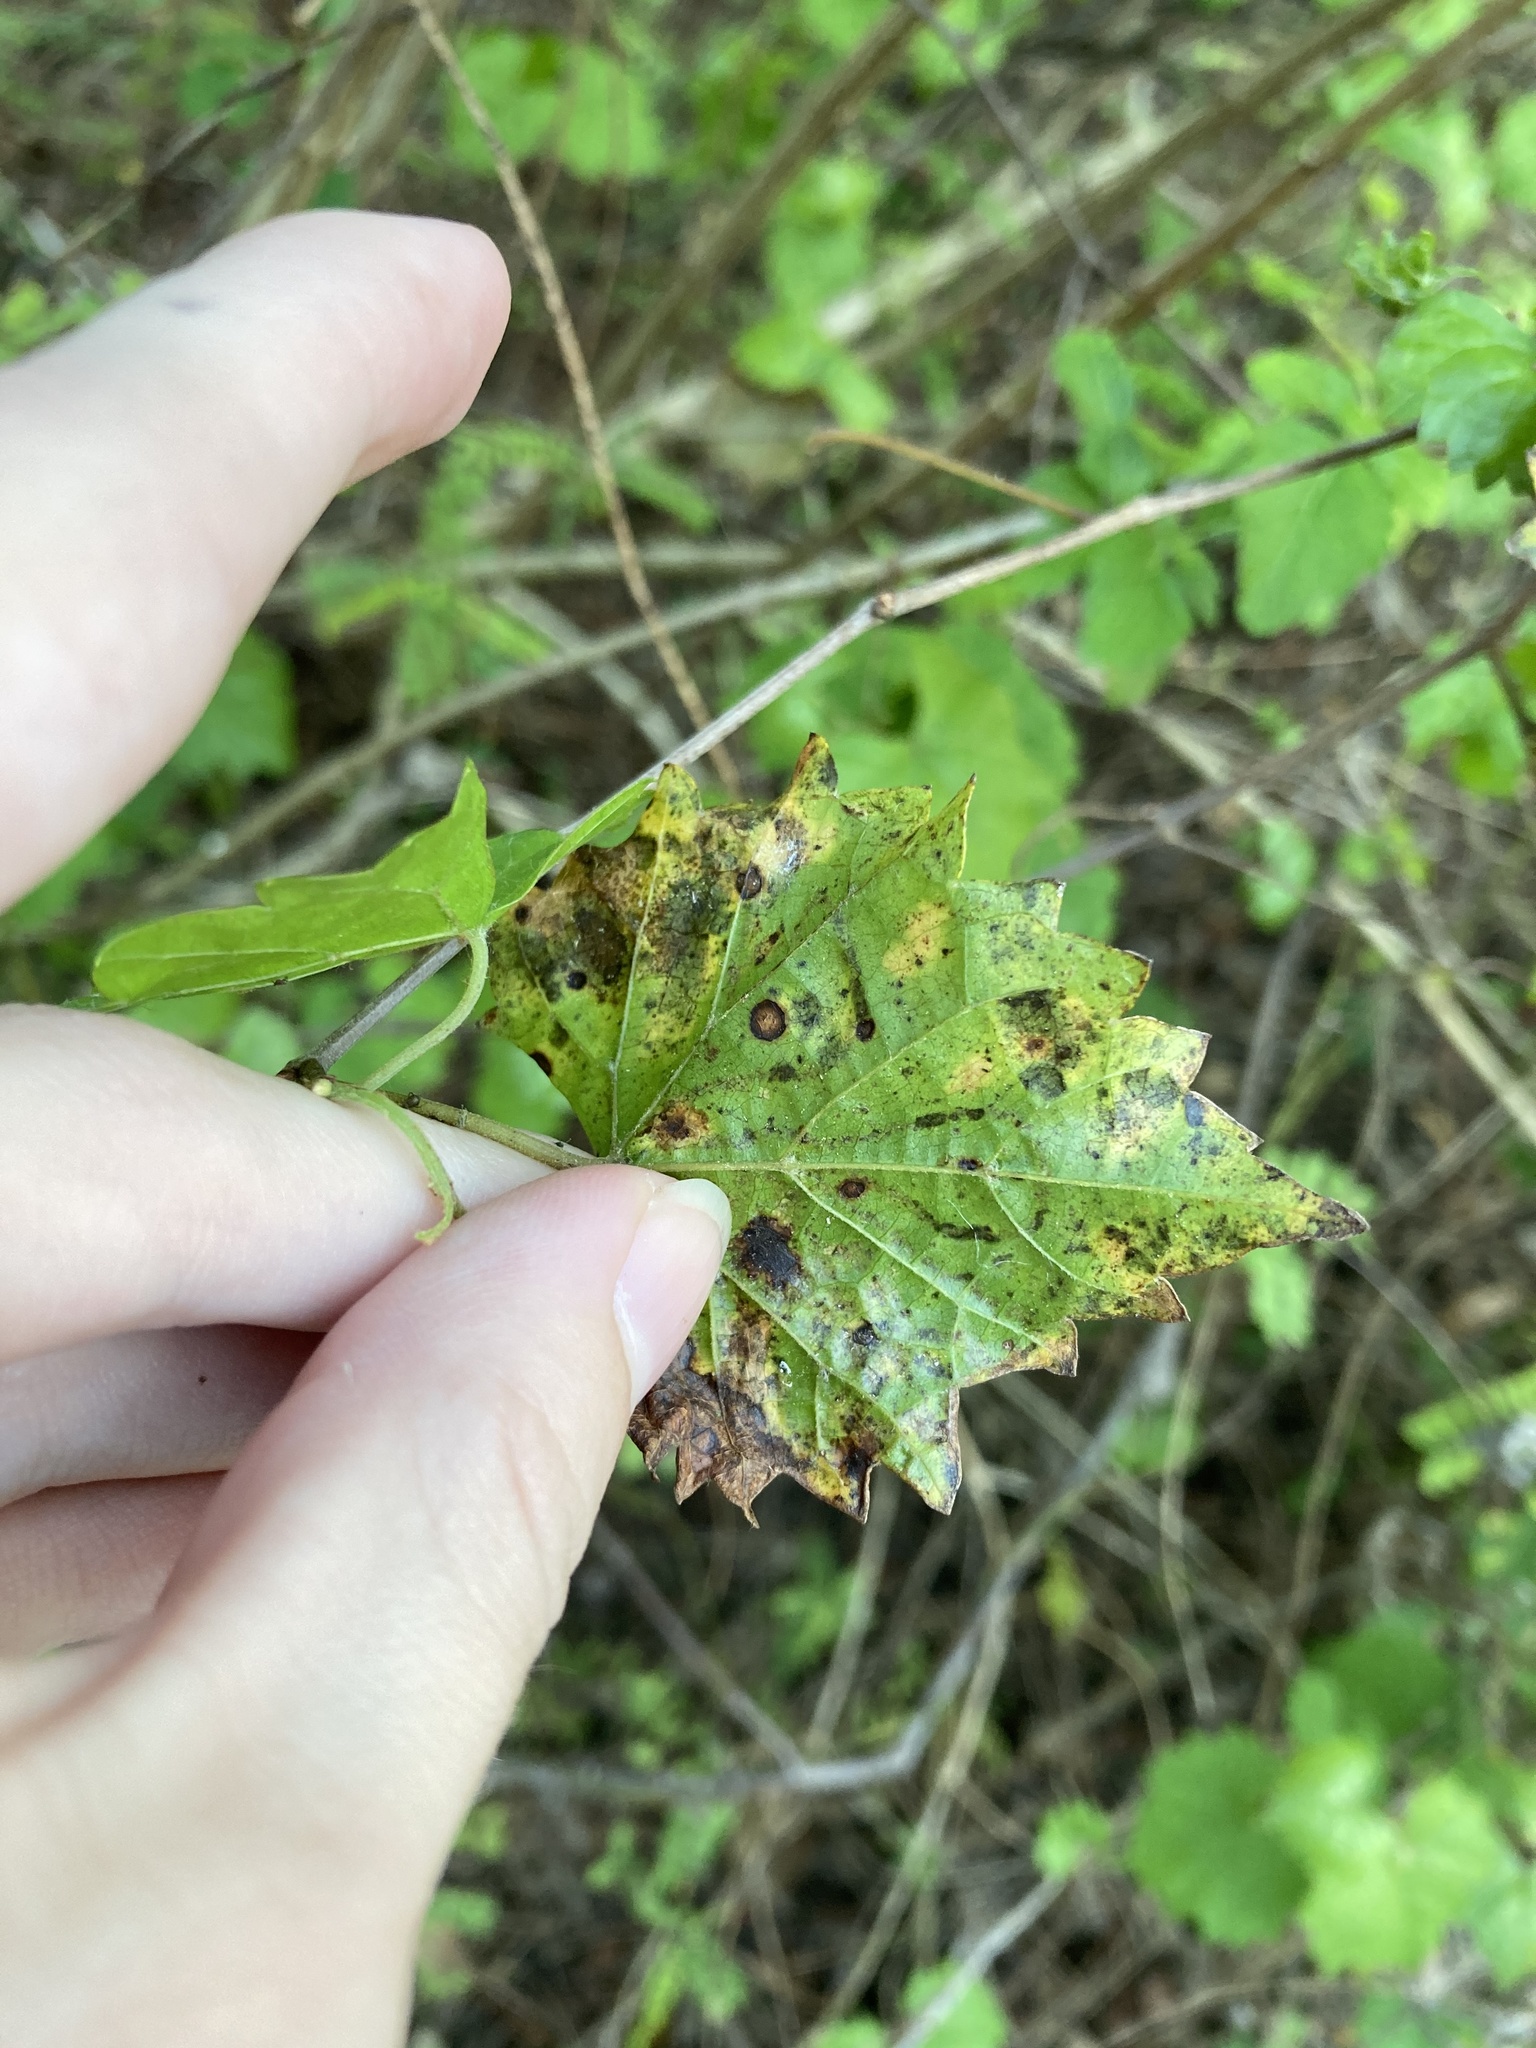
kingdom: Animalia
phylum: Arthropoda
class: Insecta
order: Lepidoptera
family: Gracillariidae
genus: Phyllocnistis
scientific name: Phyllocnistis vitegenella
